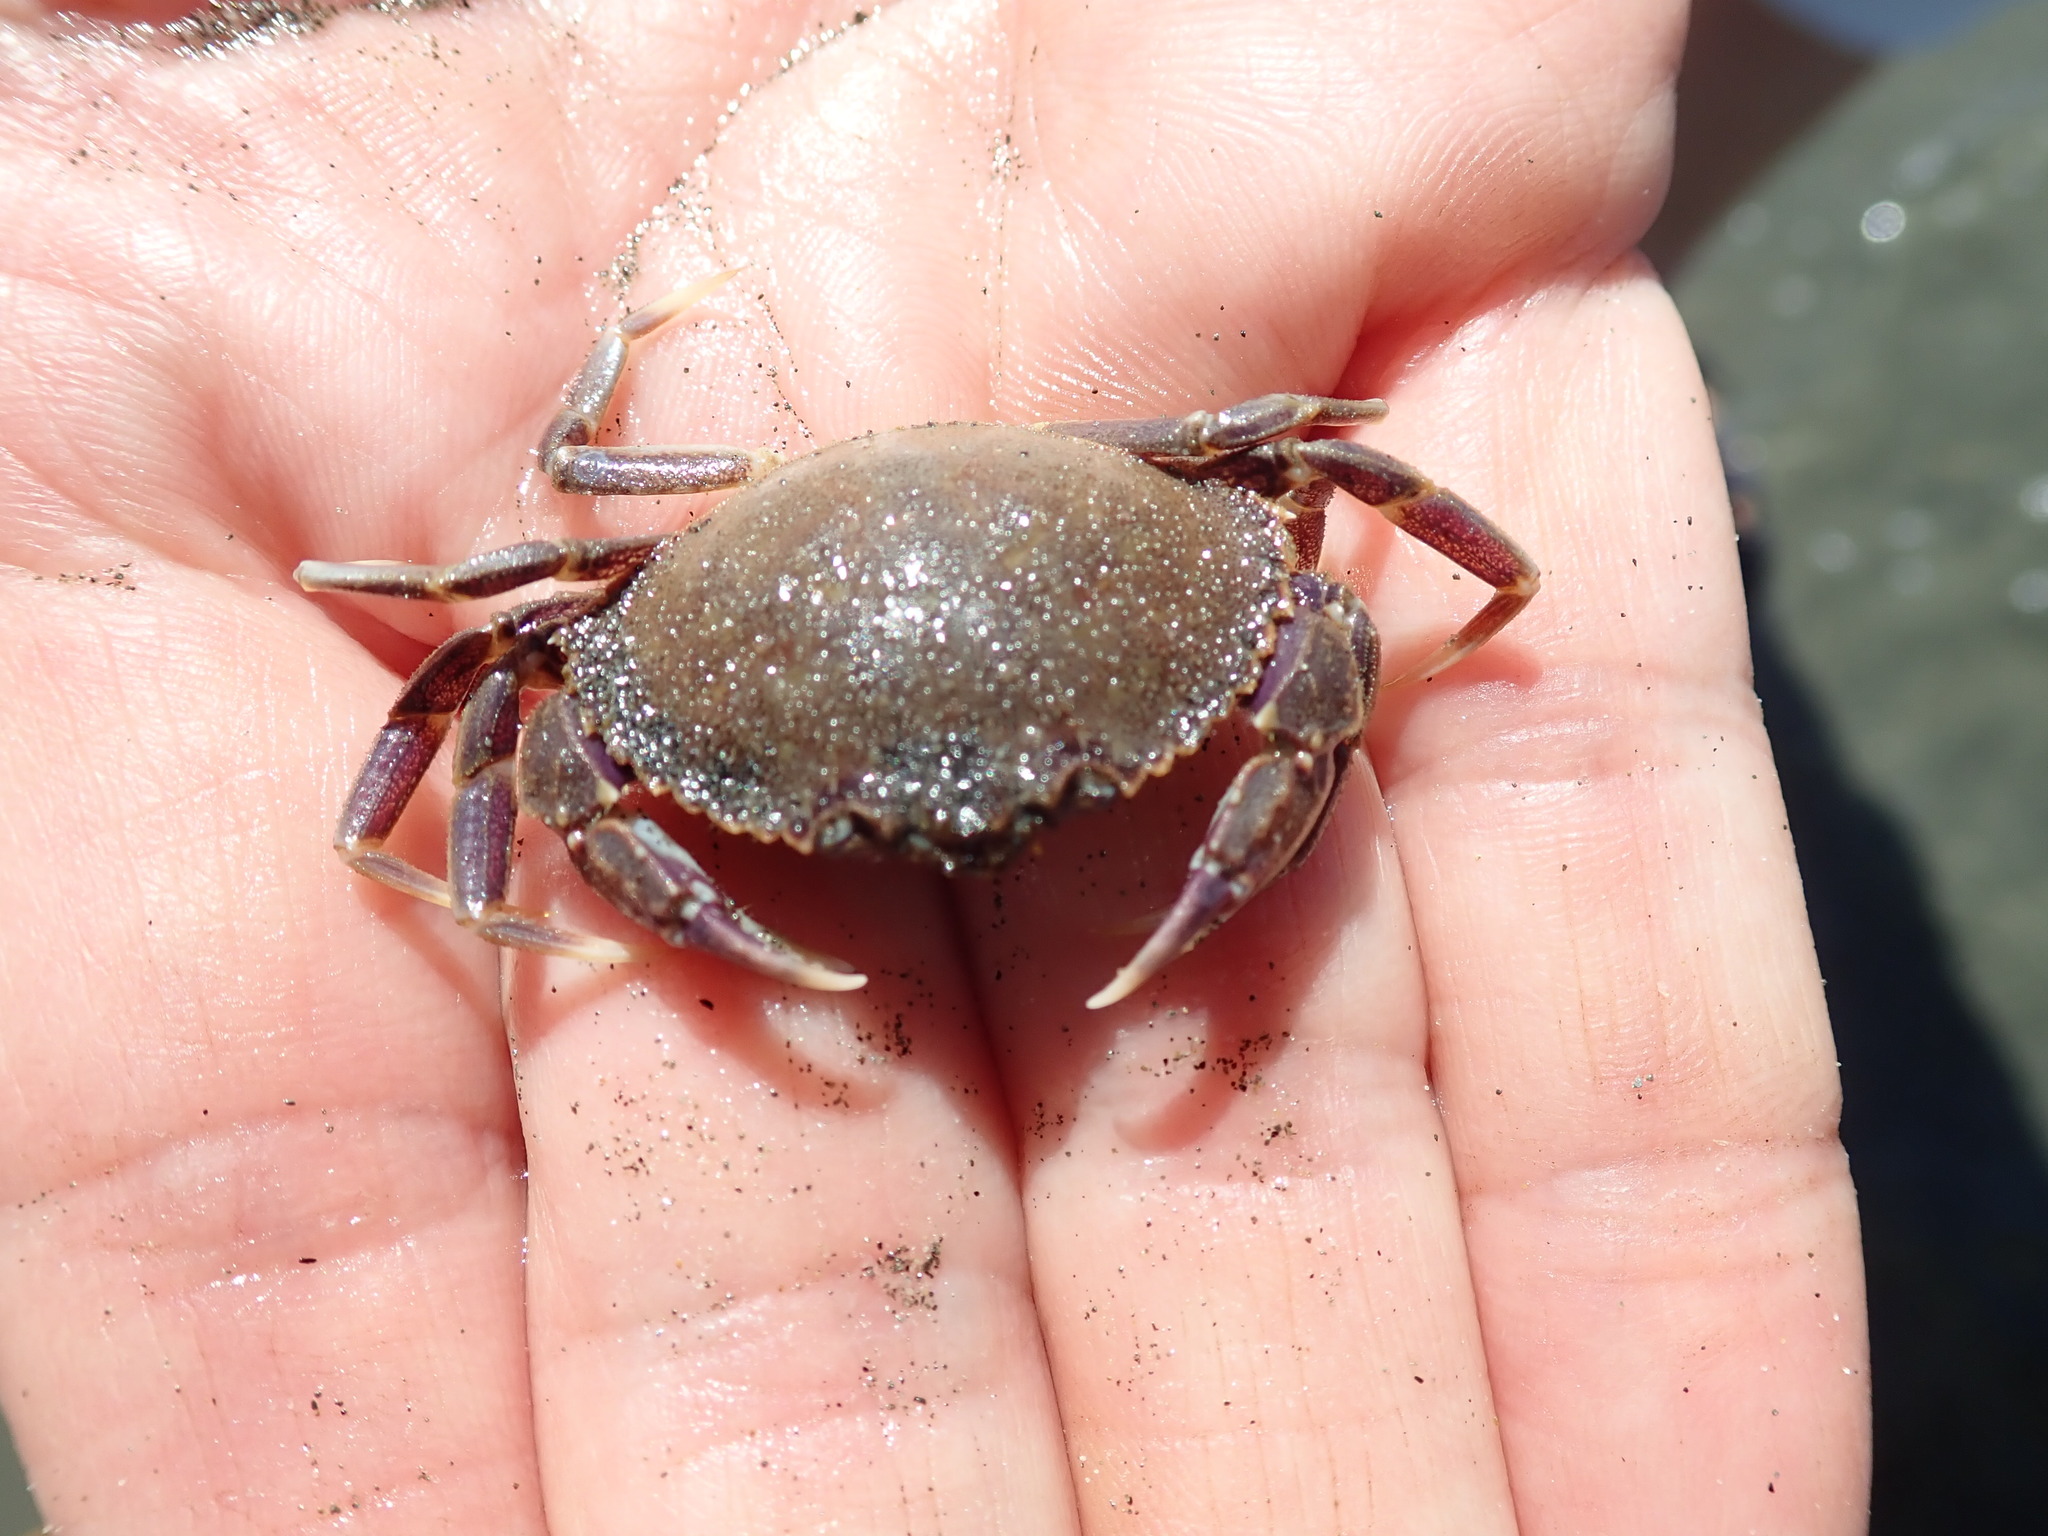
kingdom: Animalia
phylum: Arthropoda
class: Malacostraca
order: Decapoda
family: Cancridae
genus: Metacarcinus
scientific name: Metacarcinus gracilis
